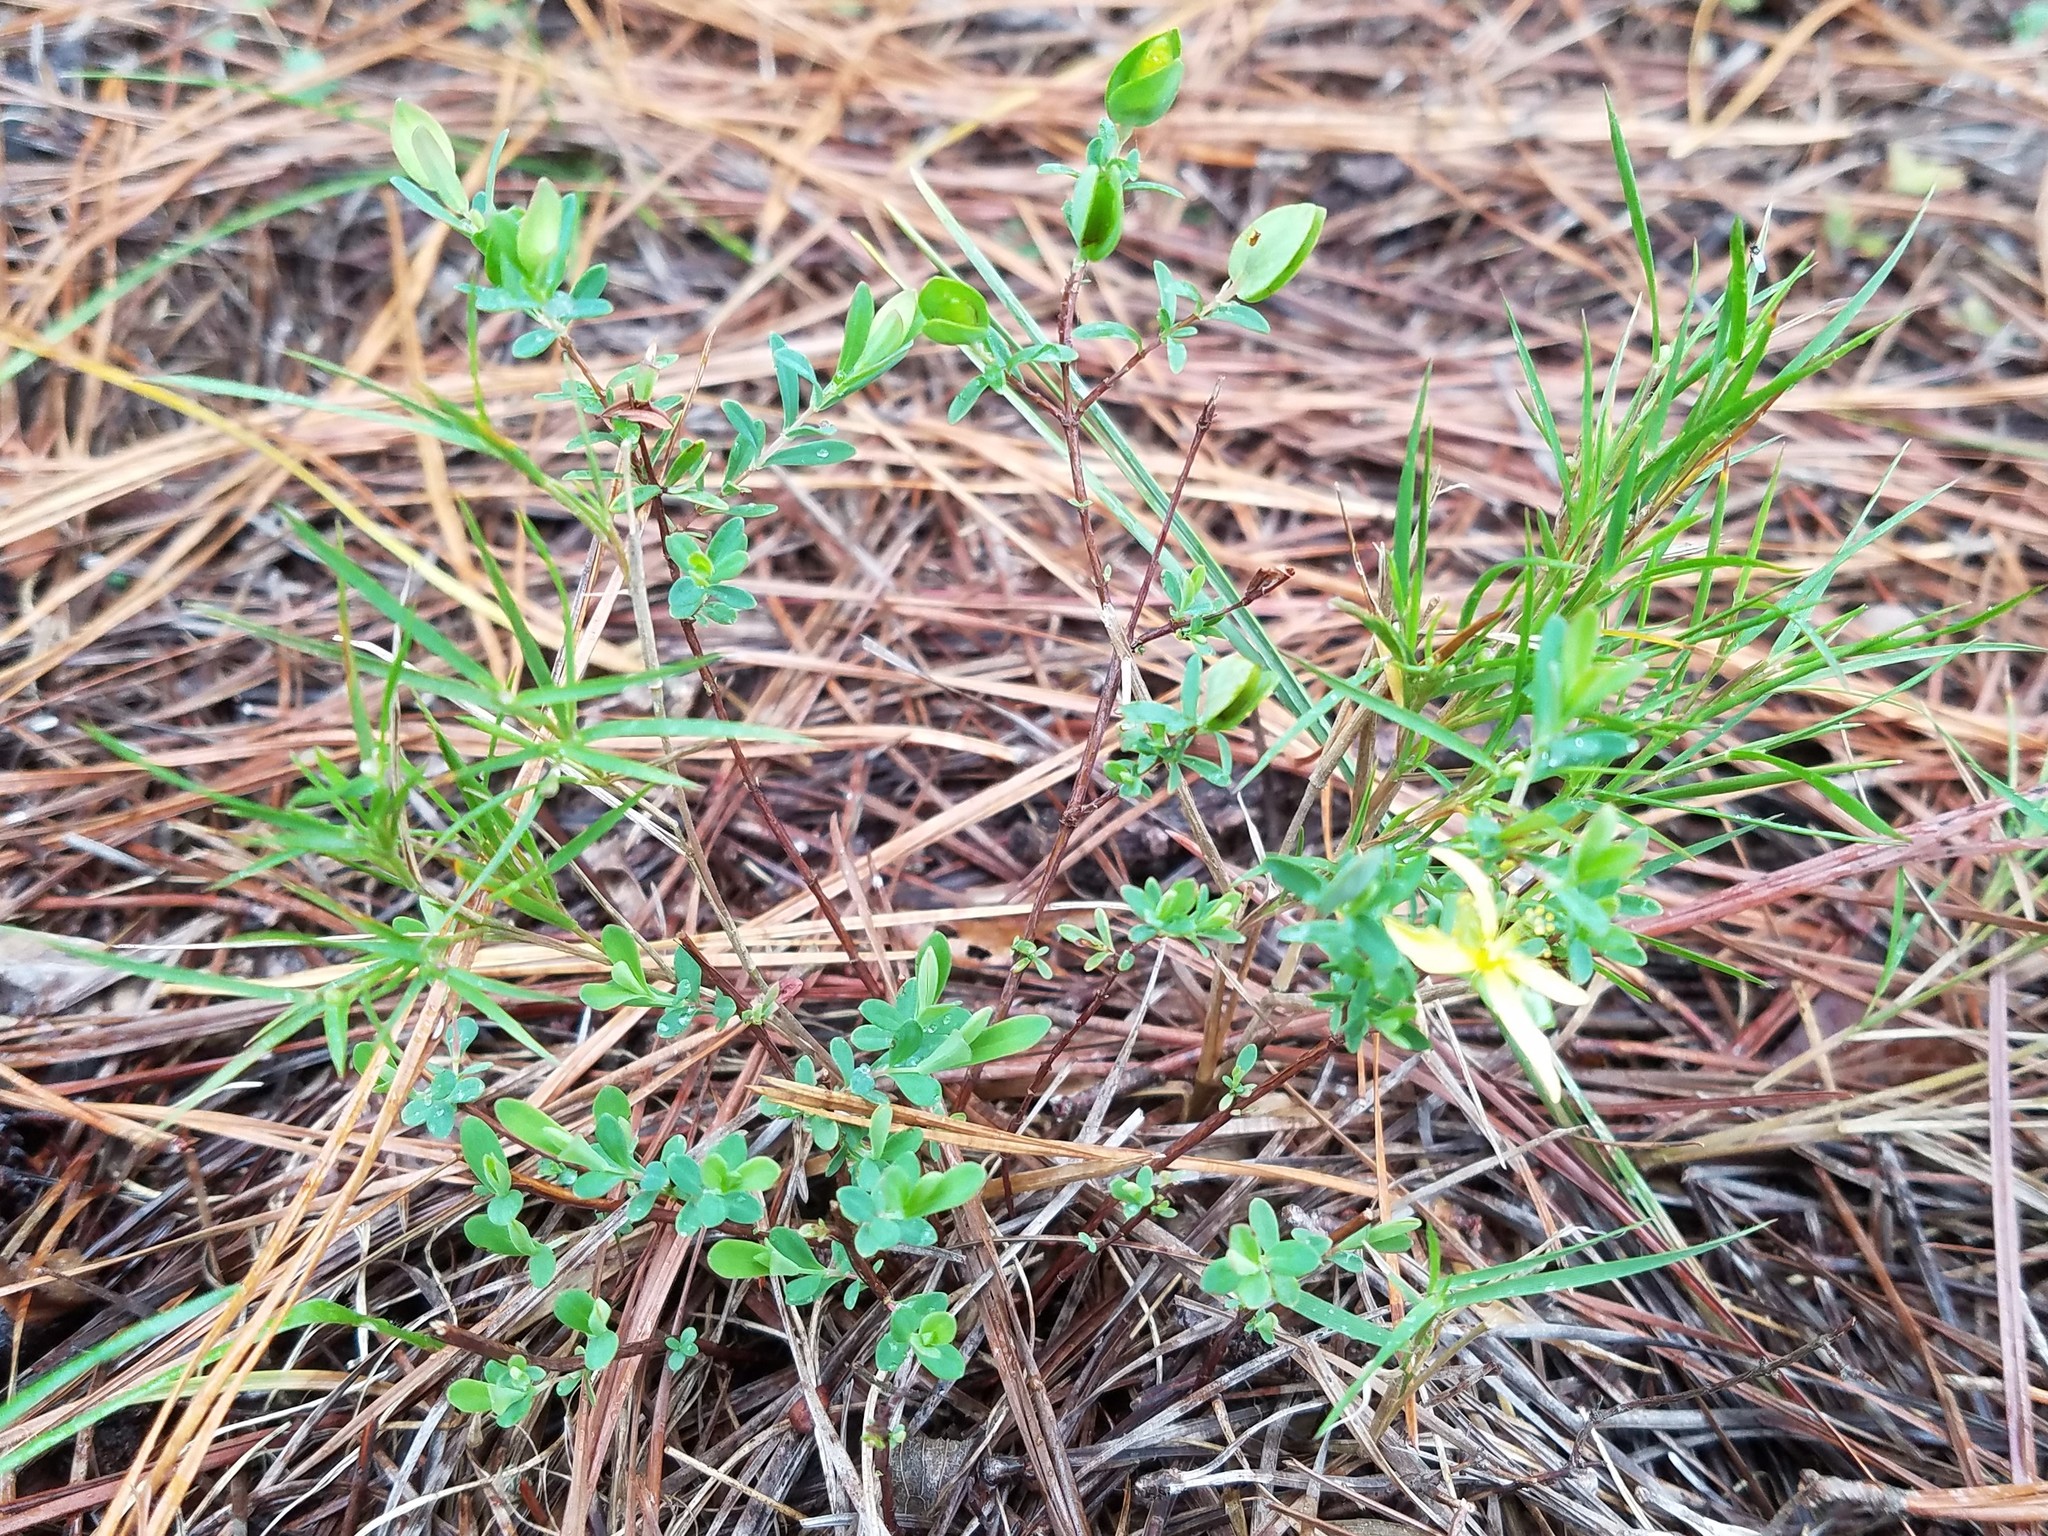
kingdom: Plantae
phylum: Tracheophyta
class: Magnoliopsida
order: Malpighiales
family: Hypericaceae
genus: Hypericum
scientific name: Hypericum hypericoides
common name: St. andrew's cross
